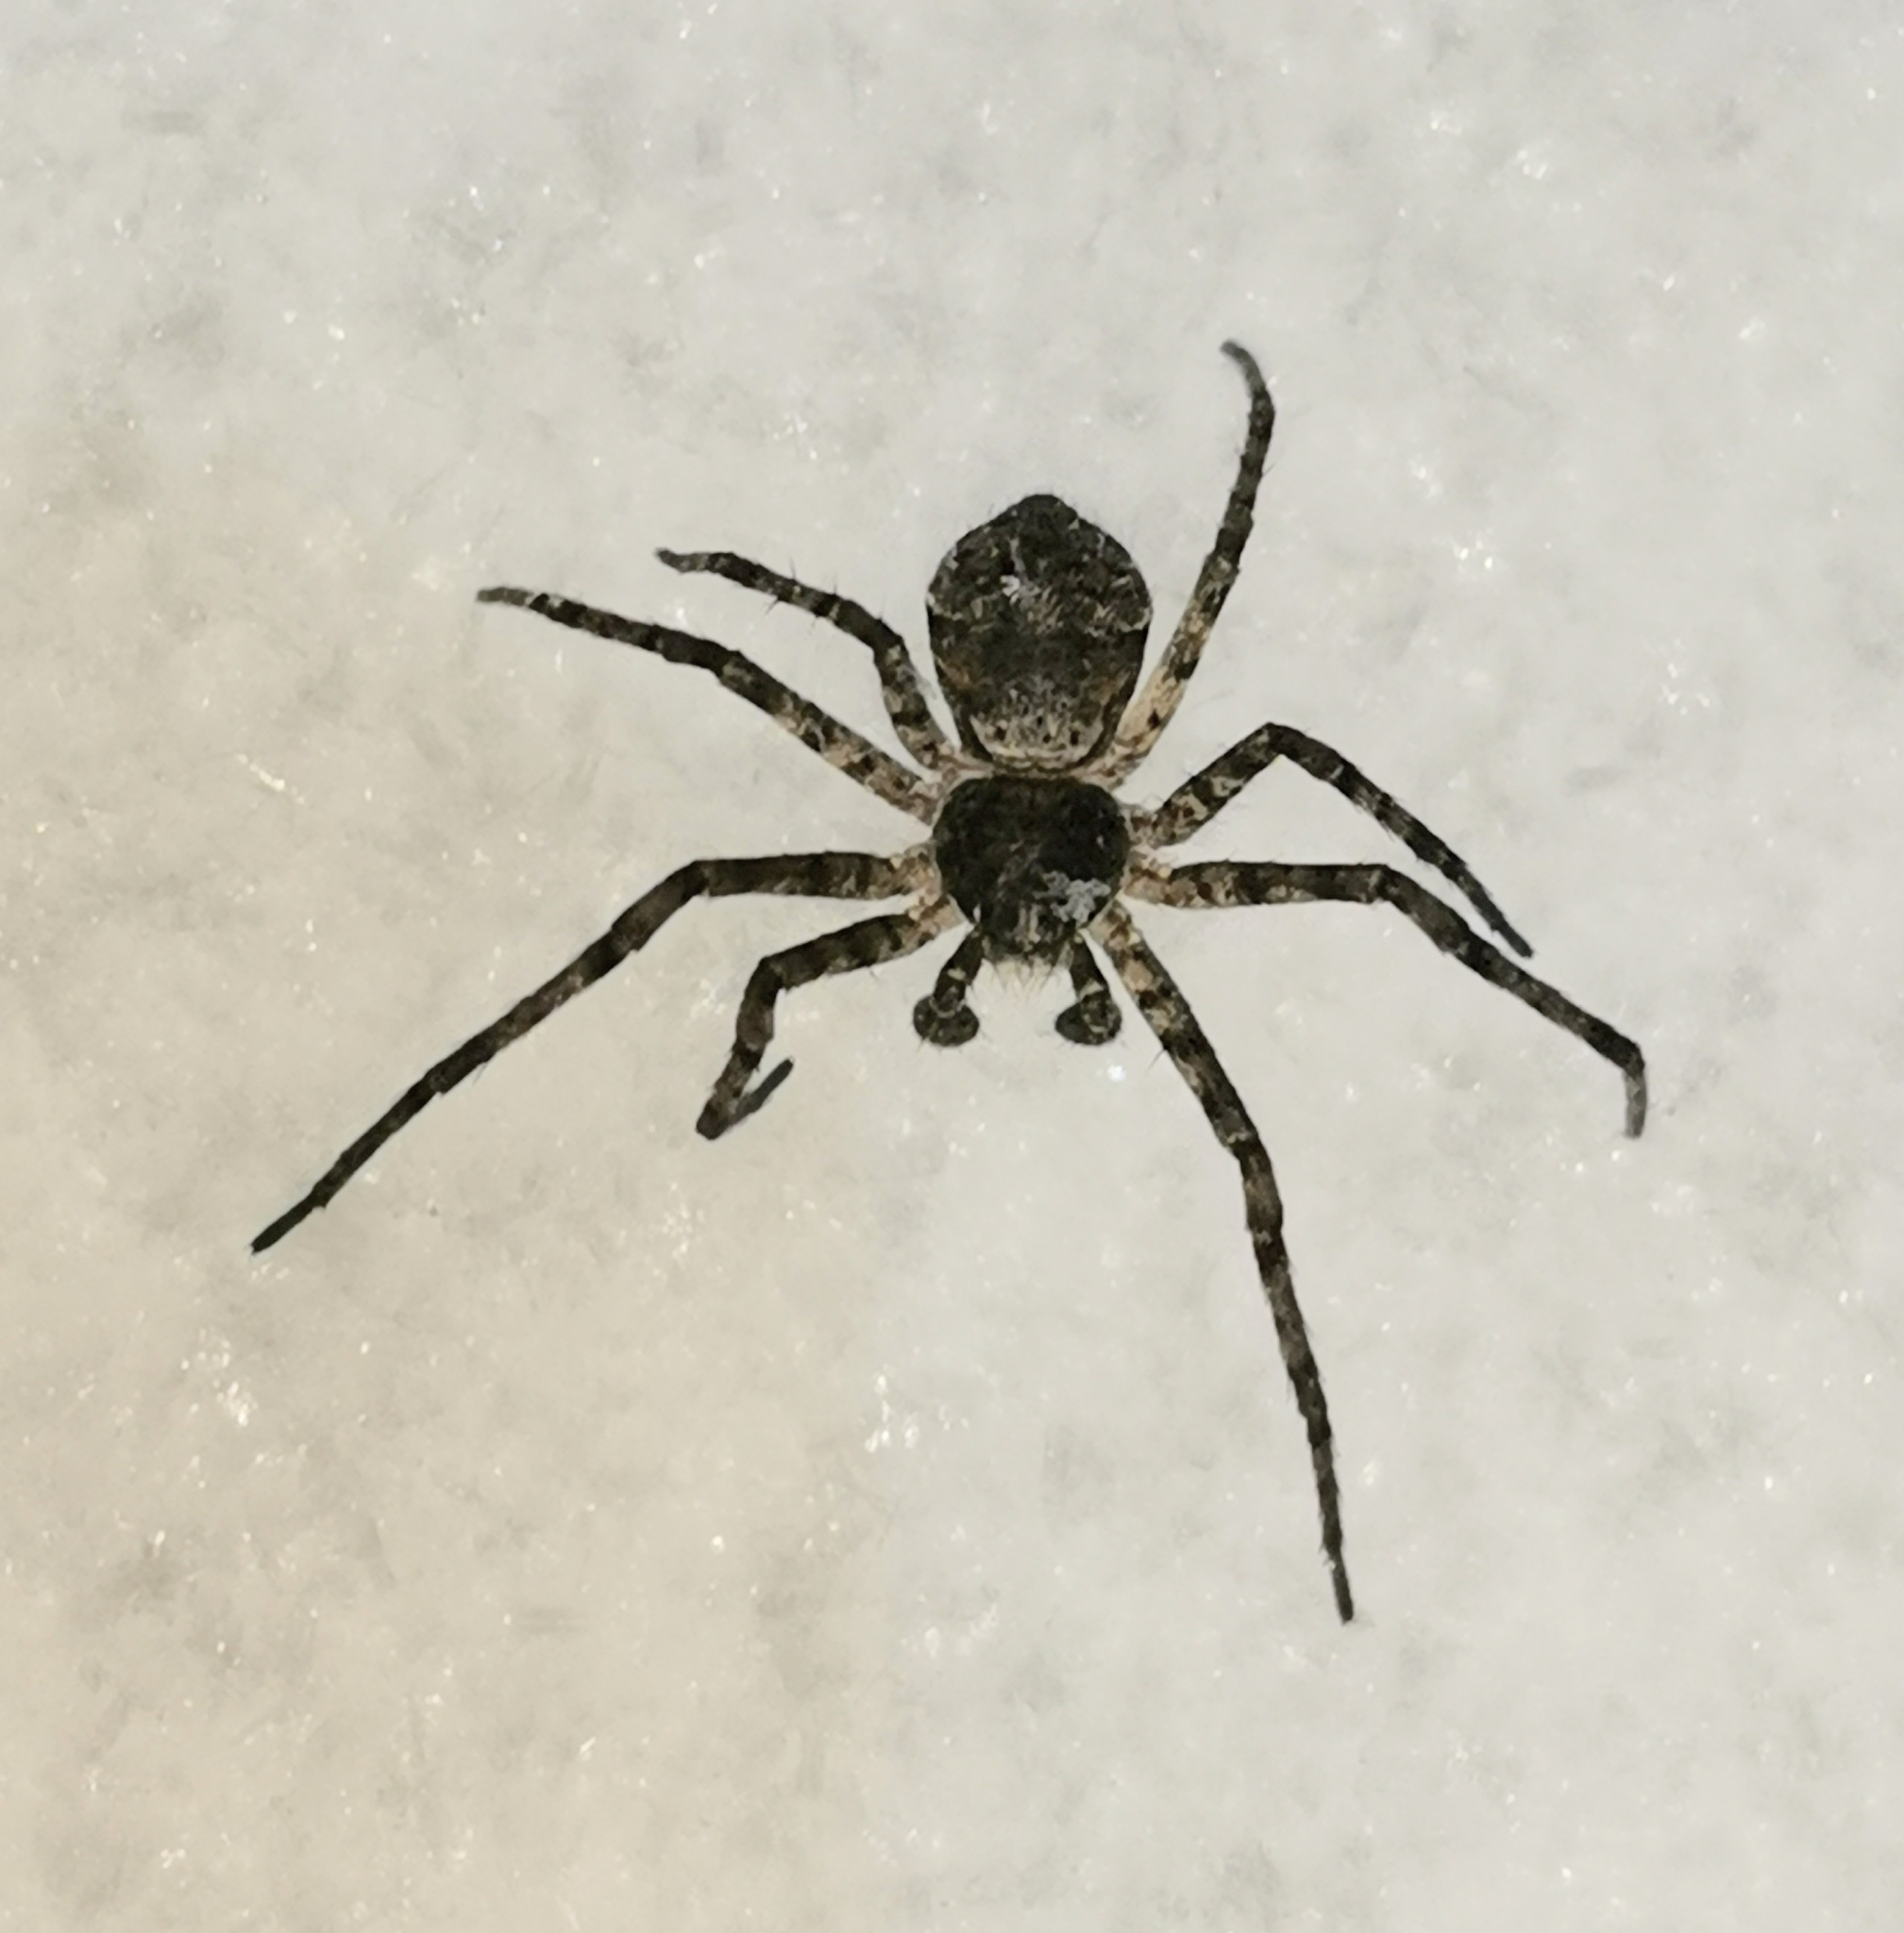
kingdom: Animalia
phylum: Arthropoda
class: Arachnida
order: Araneae
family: Philodromidae
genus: Philodromus
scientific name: Philodromus margaritatus
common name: Lichen running-spider
